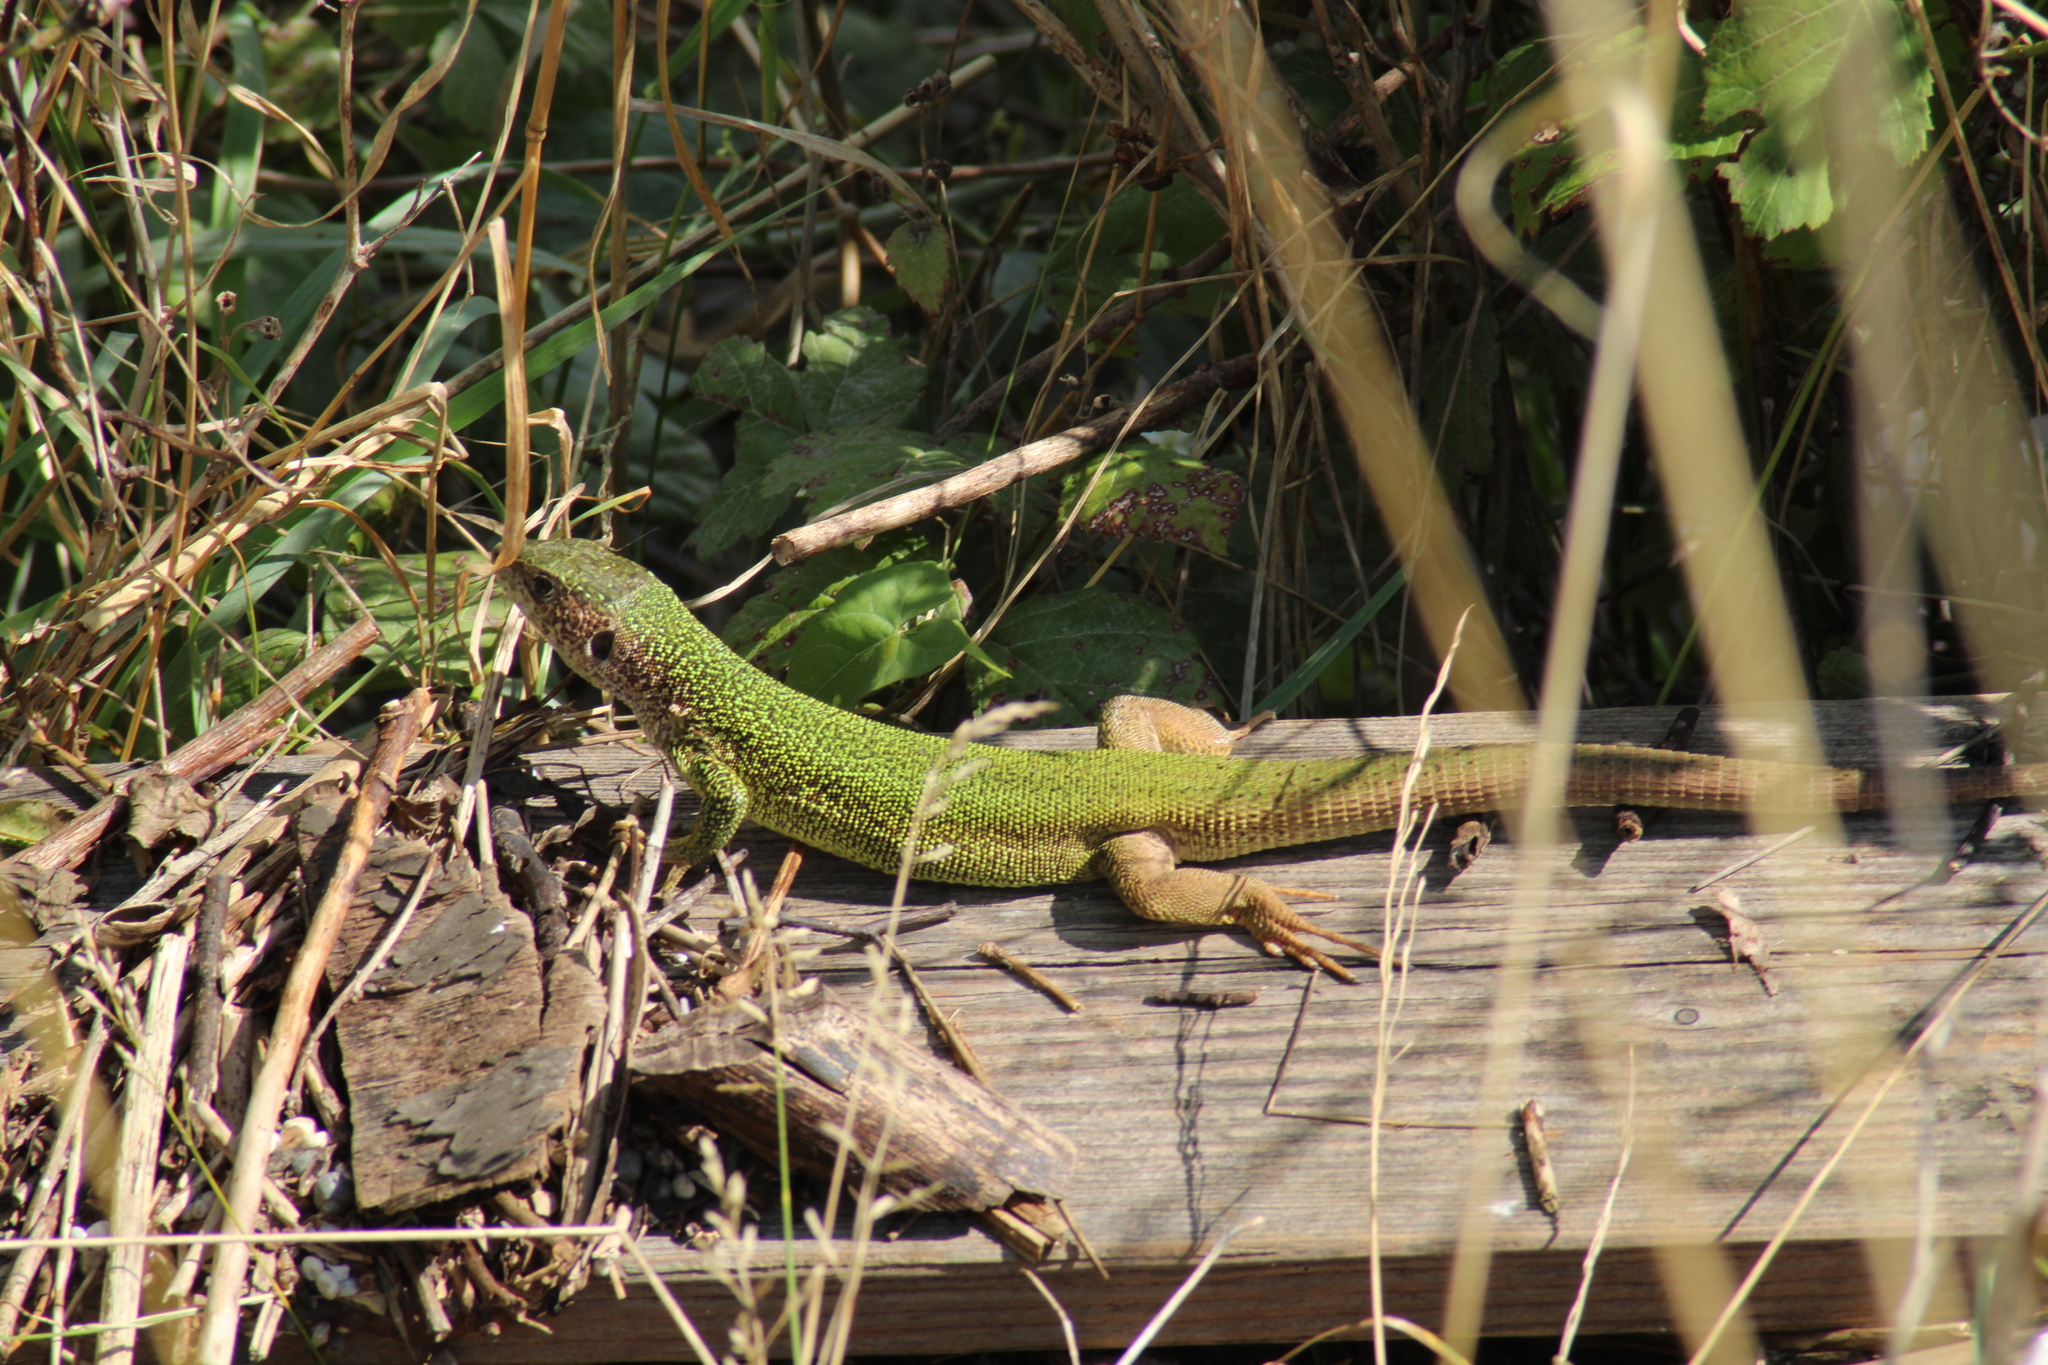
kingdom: Animalia
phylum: Chordata
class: Squamata
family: Lacertidae
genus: Lacerta
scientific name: Lacerta viridis
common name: European green lizard
